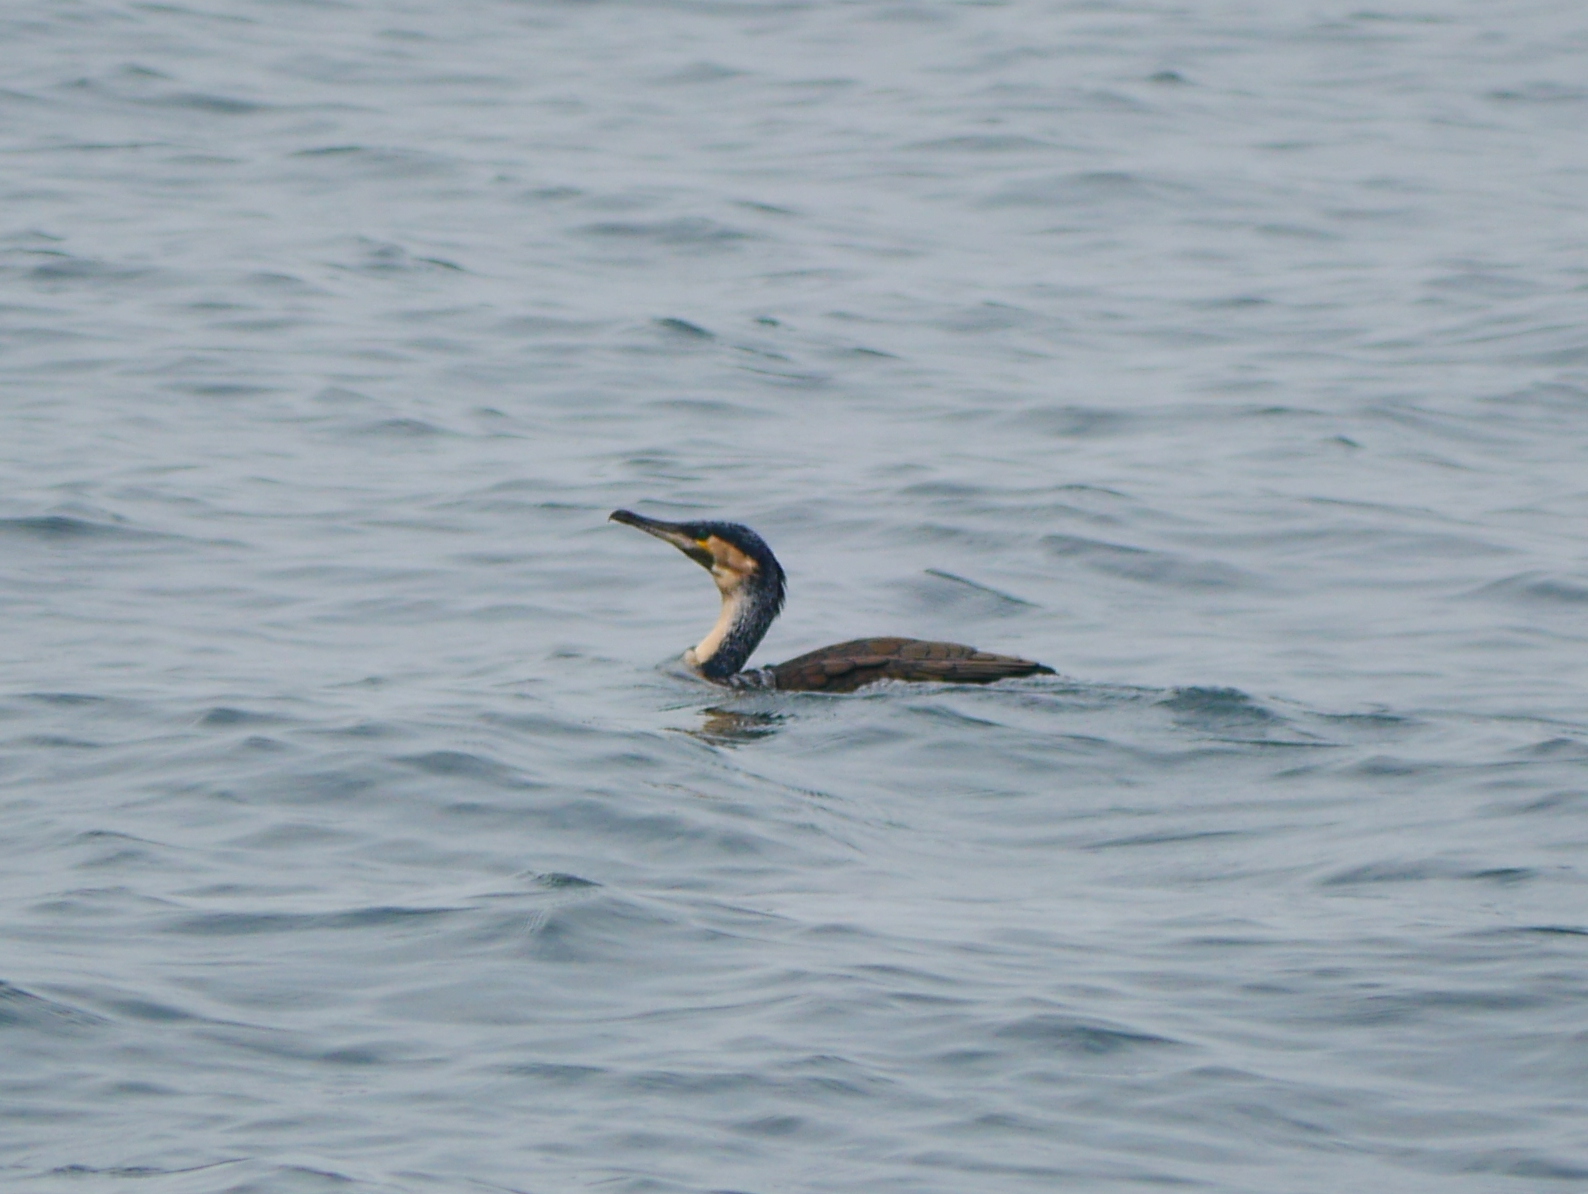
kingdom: Animalia
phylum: Chordata
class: Aves
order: Suliformes
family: Phalacrocoracidae
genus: Phalacrocorax
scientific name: Phalacrocorax carbo
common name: Great cormorant
